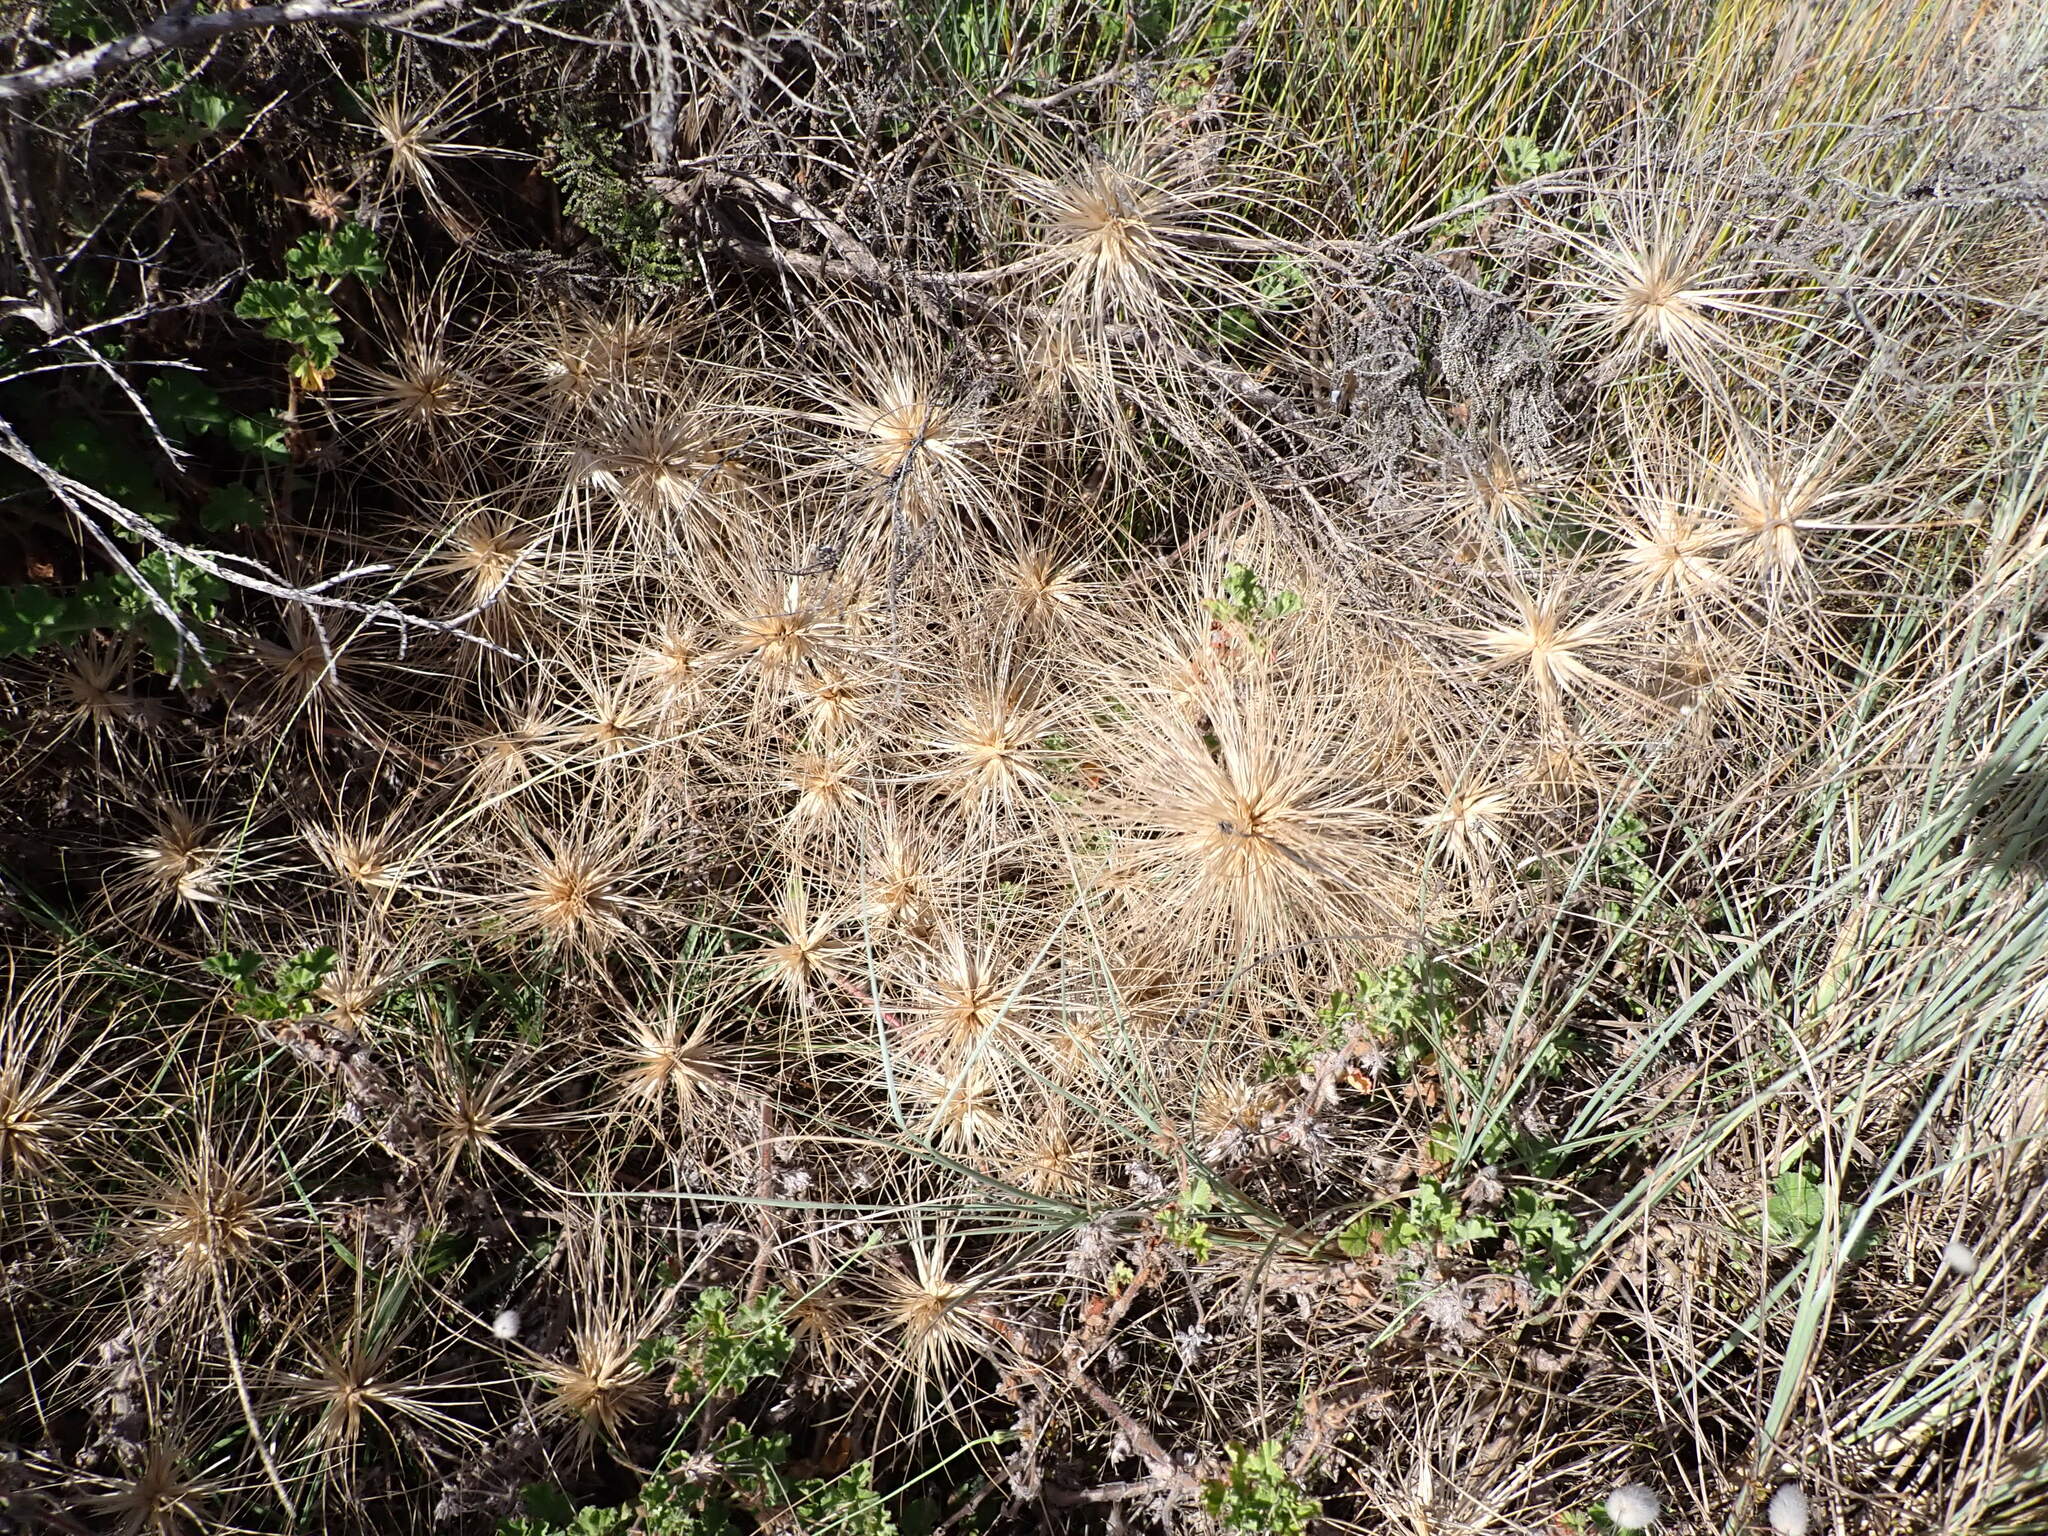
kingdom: Plantae
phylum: Tracheophyta
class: Liliopsida
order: Poales
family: Poaceae
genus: Spinifex
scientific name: Spinifex sericeus
